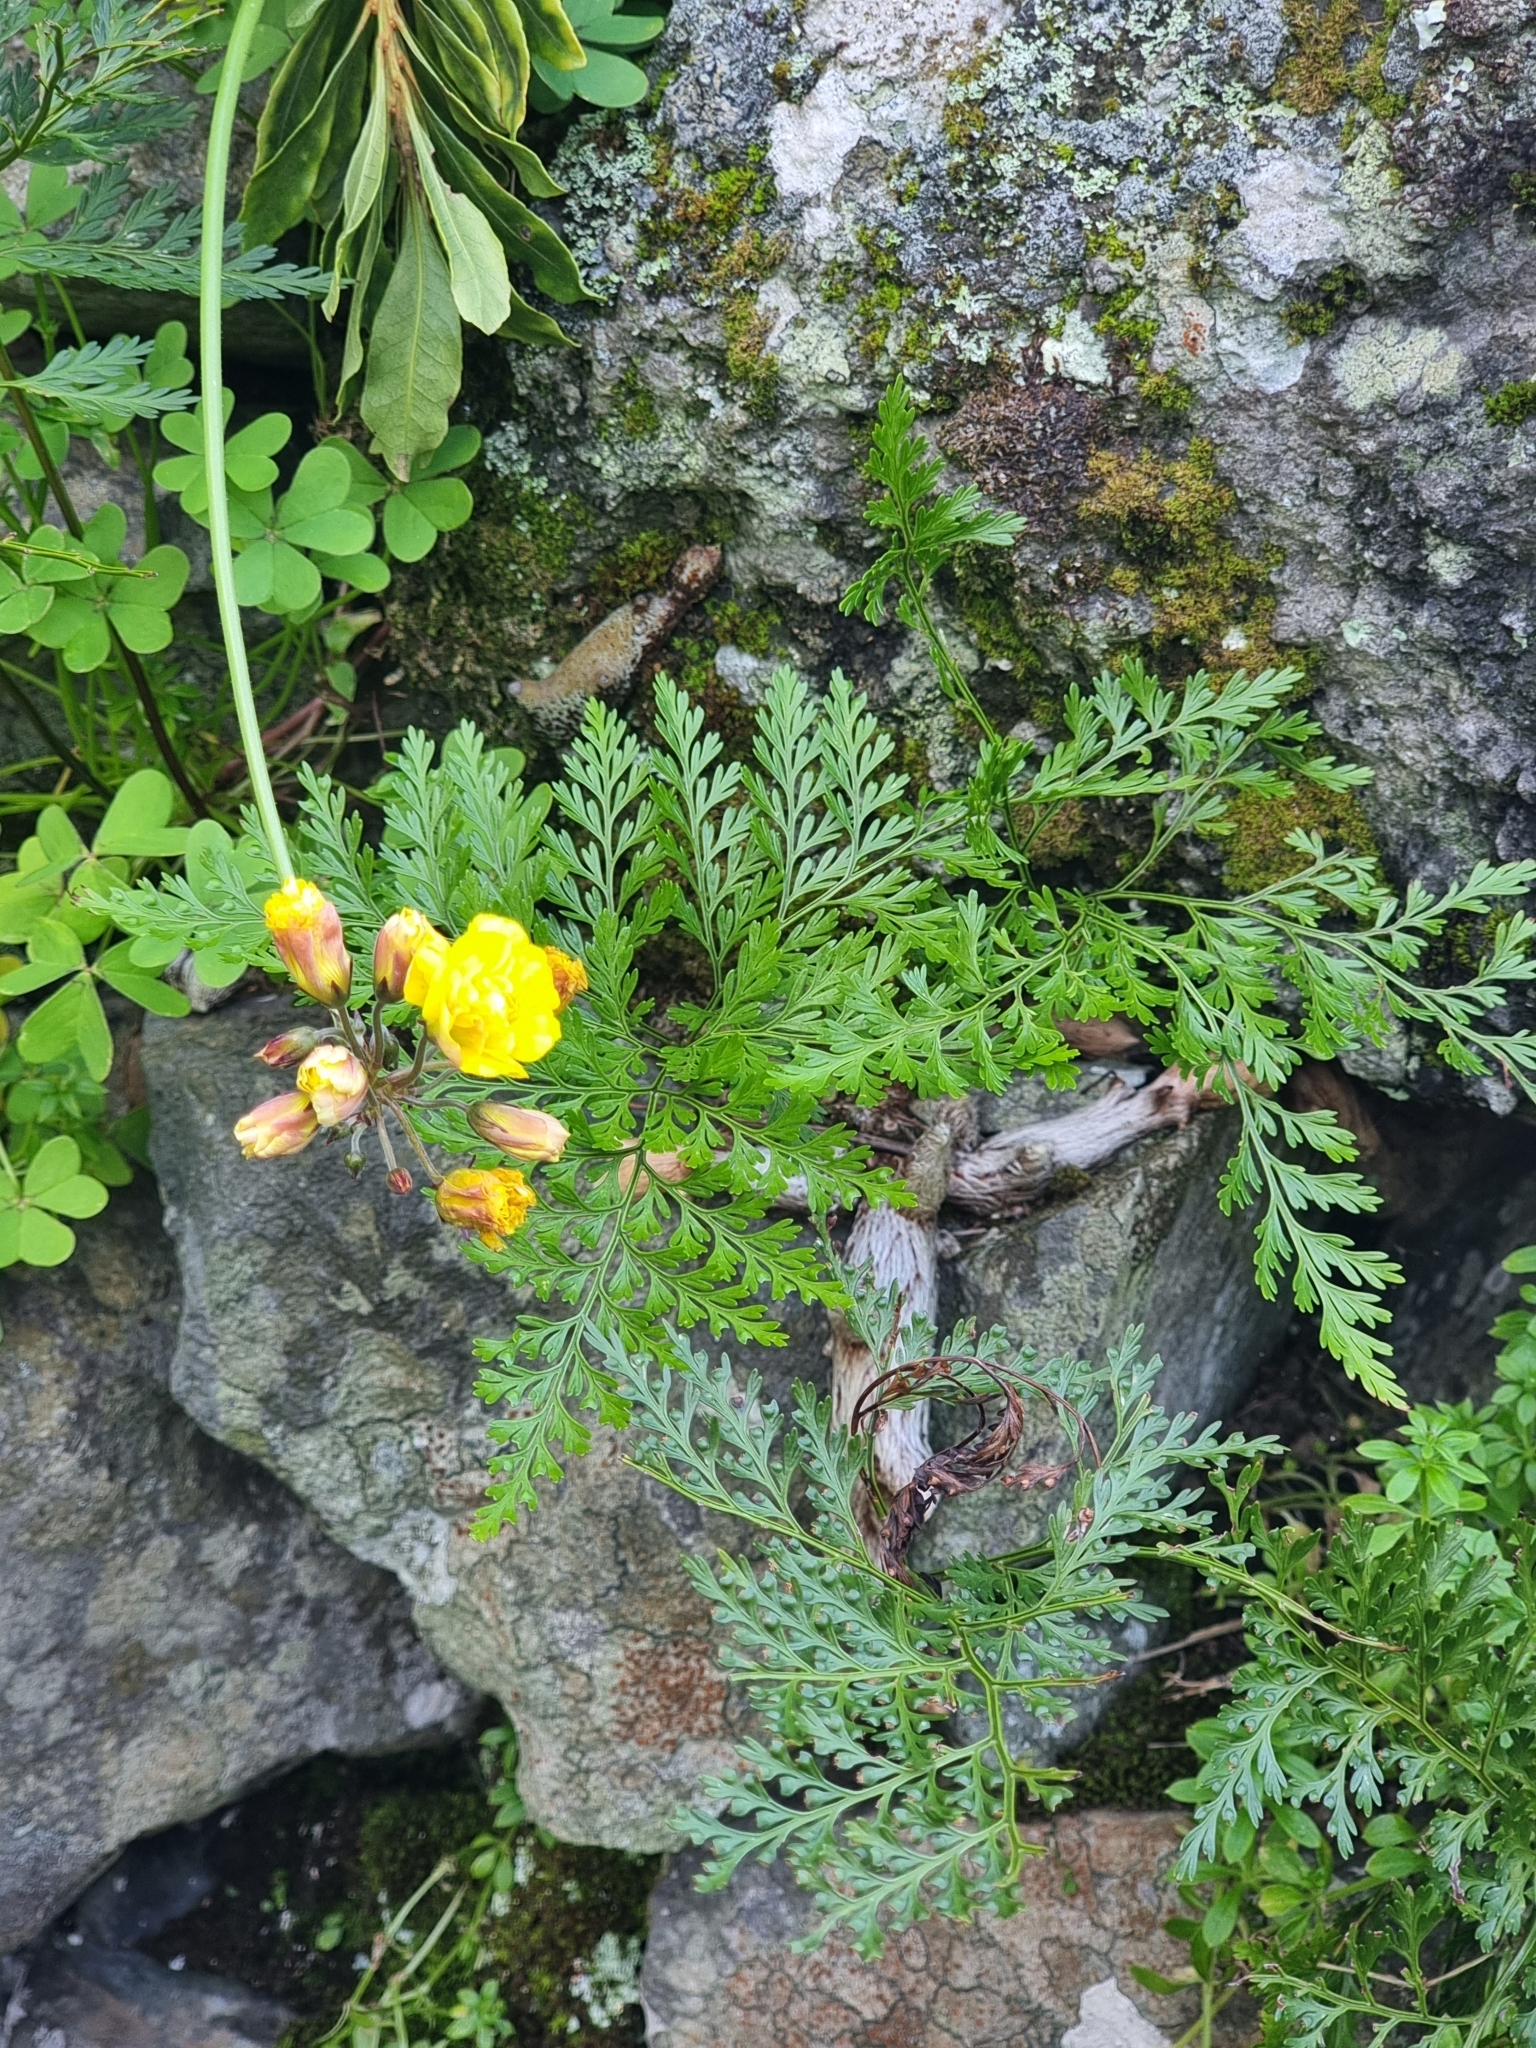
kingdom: Plantae
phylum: Tracheophyta
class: Polypodiopsida
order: Polypodiales
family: Davalliaceae
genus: Davallia
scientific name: Davallia canariensis
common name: Hare's-foot fern
